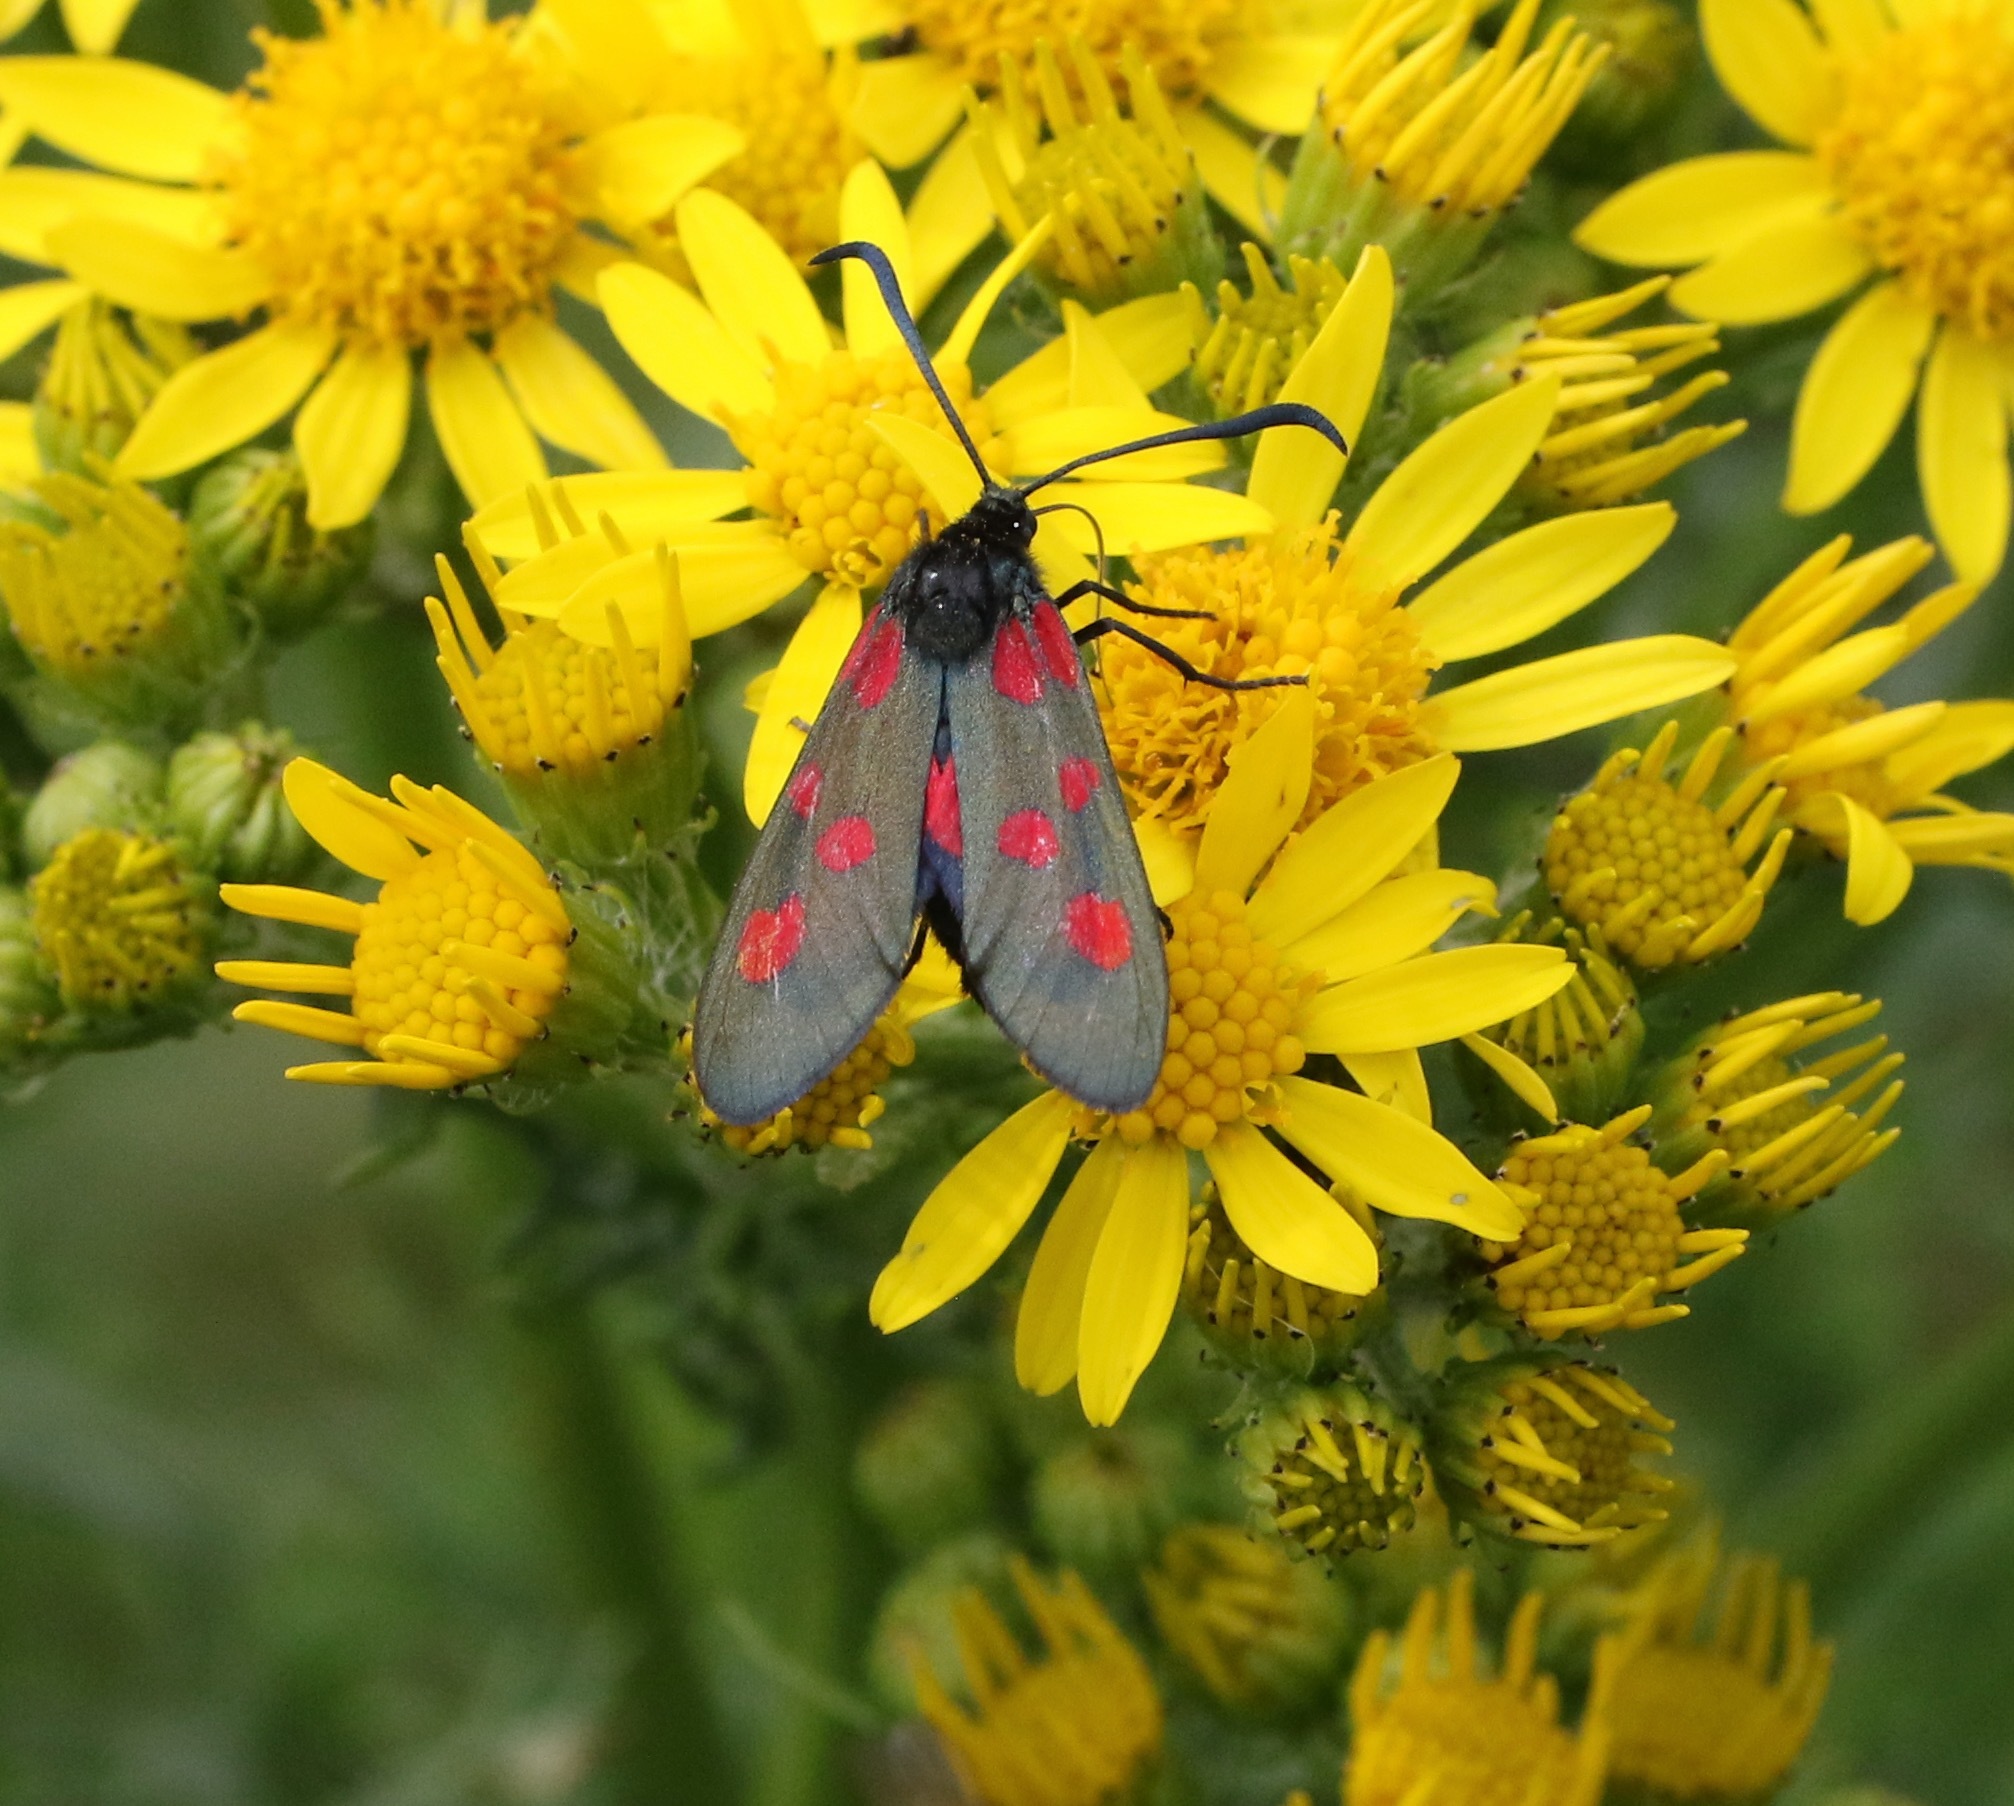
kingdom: Animalia
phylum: Arthropoda
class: Insecta
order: Lepidoptera
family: Zygaenidae
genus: Zygaena
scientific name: Zygaena lonicerae
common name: Narrow-bordered five-spot burnet
